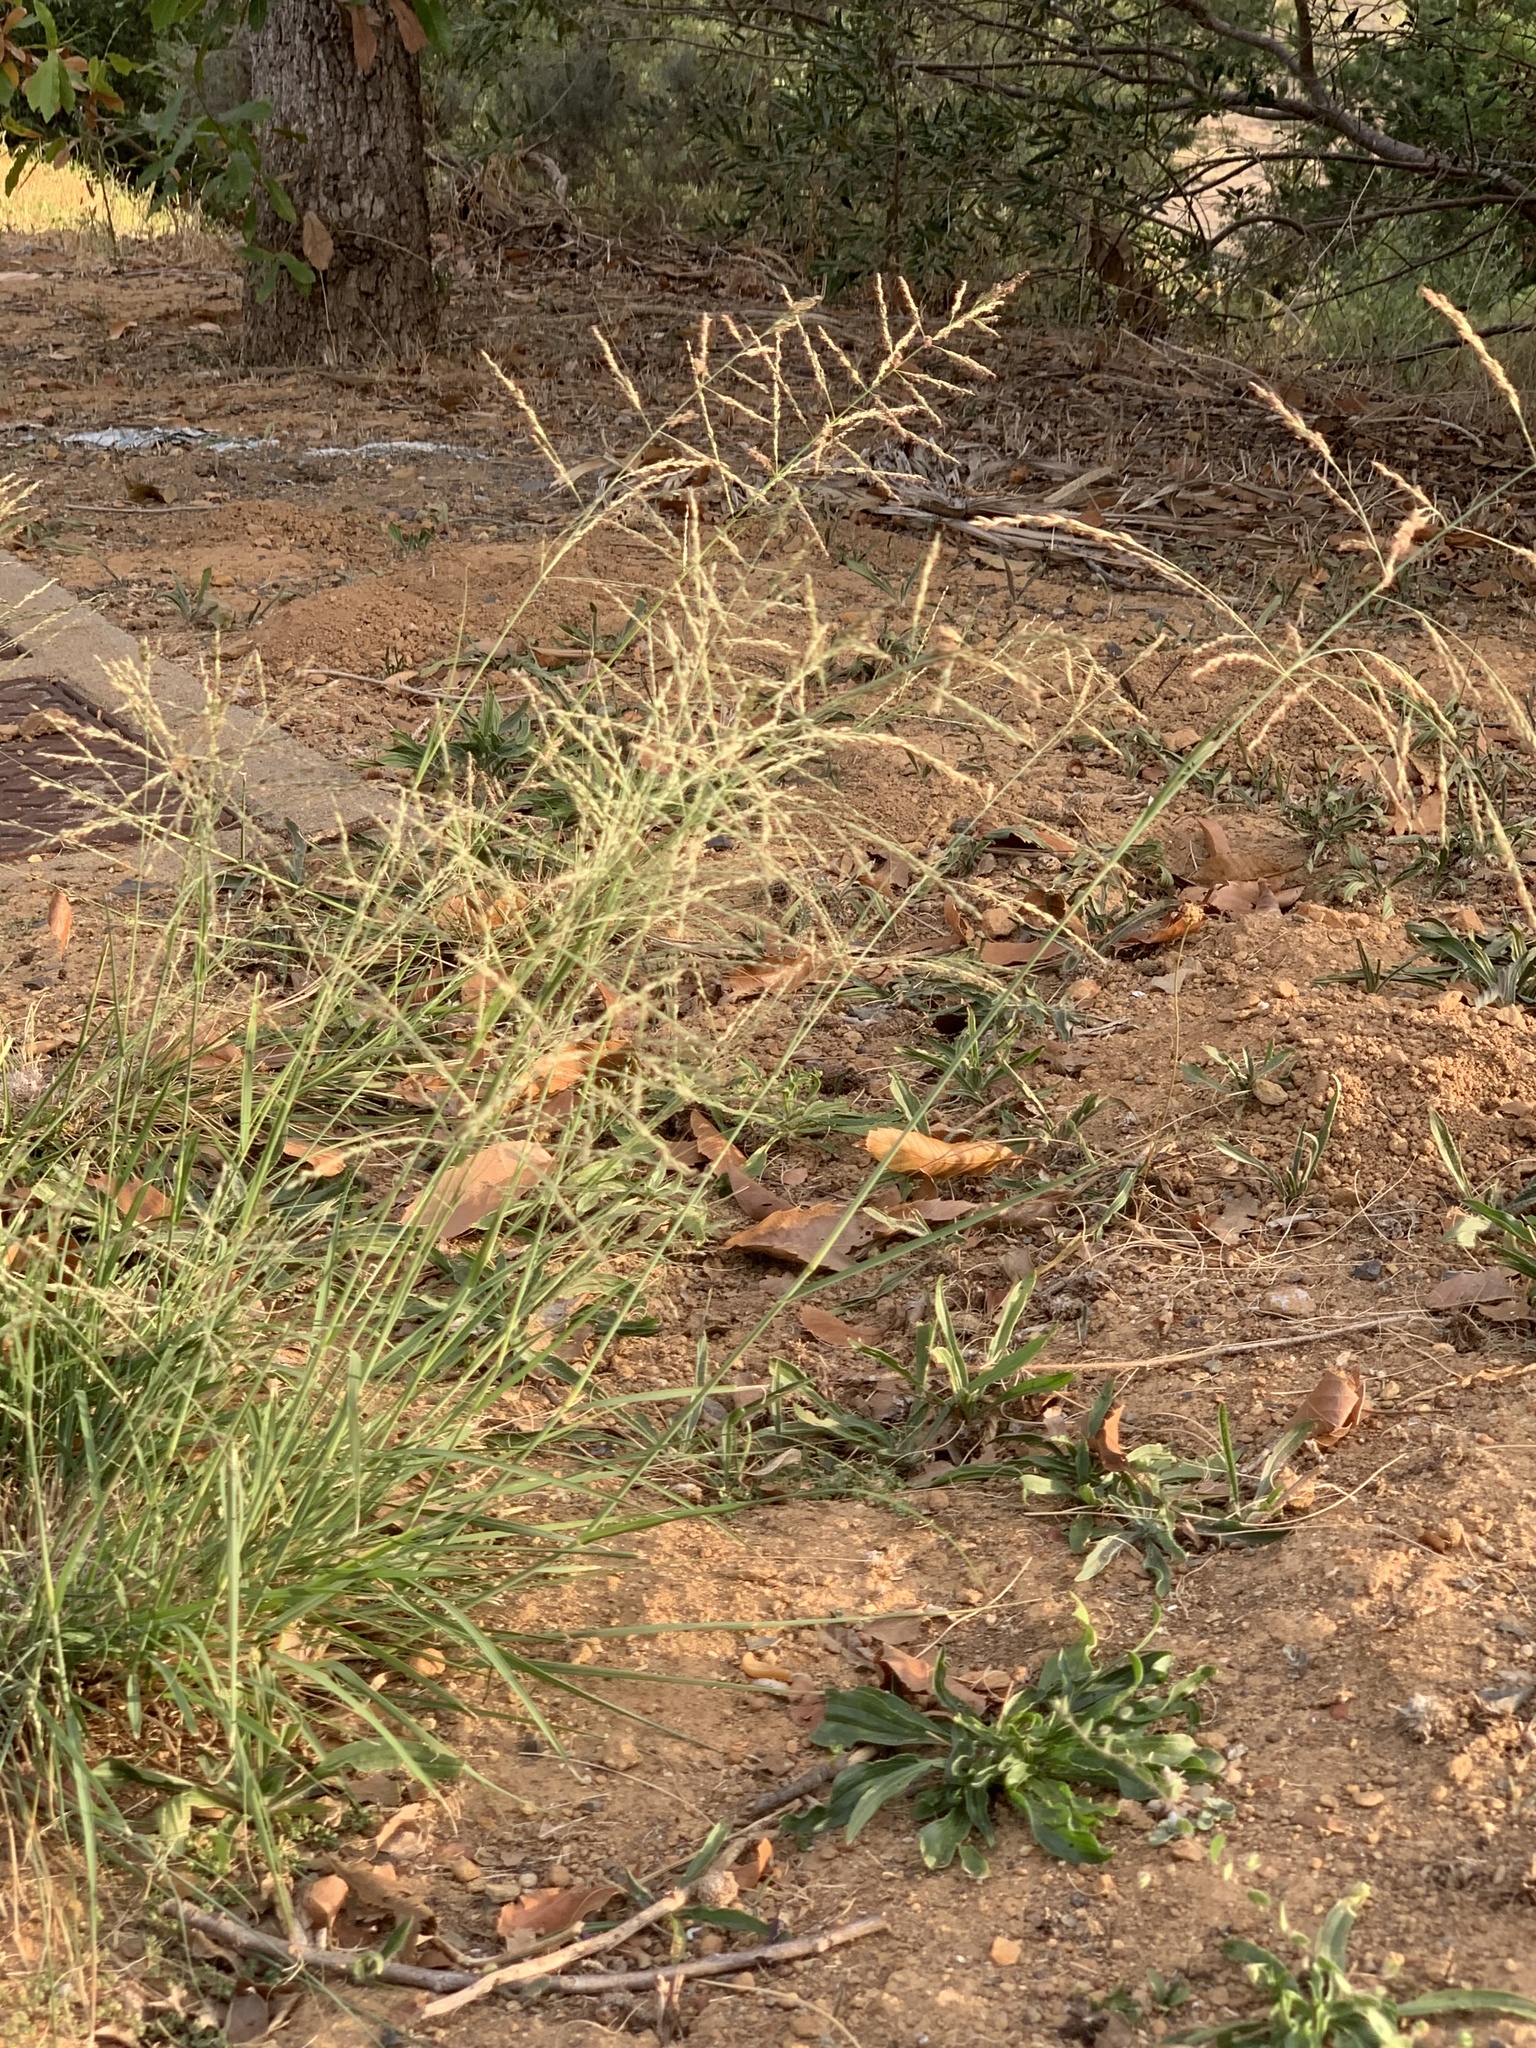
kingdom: Plantae
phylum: Tracheophyta
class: Liliopsida
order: Poales
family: Poaceae
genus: Eragrostis
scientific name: Eragrostis curvula
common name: African love-grass
